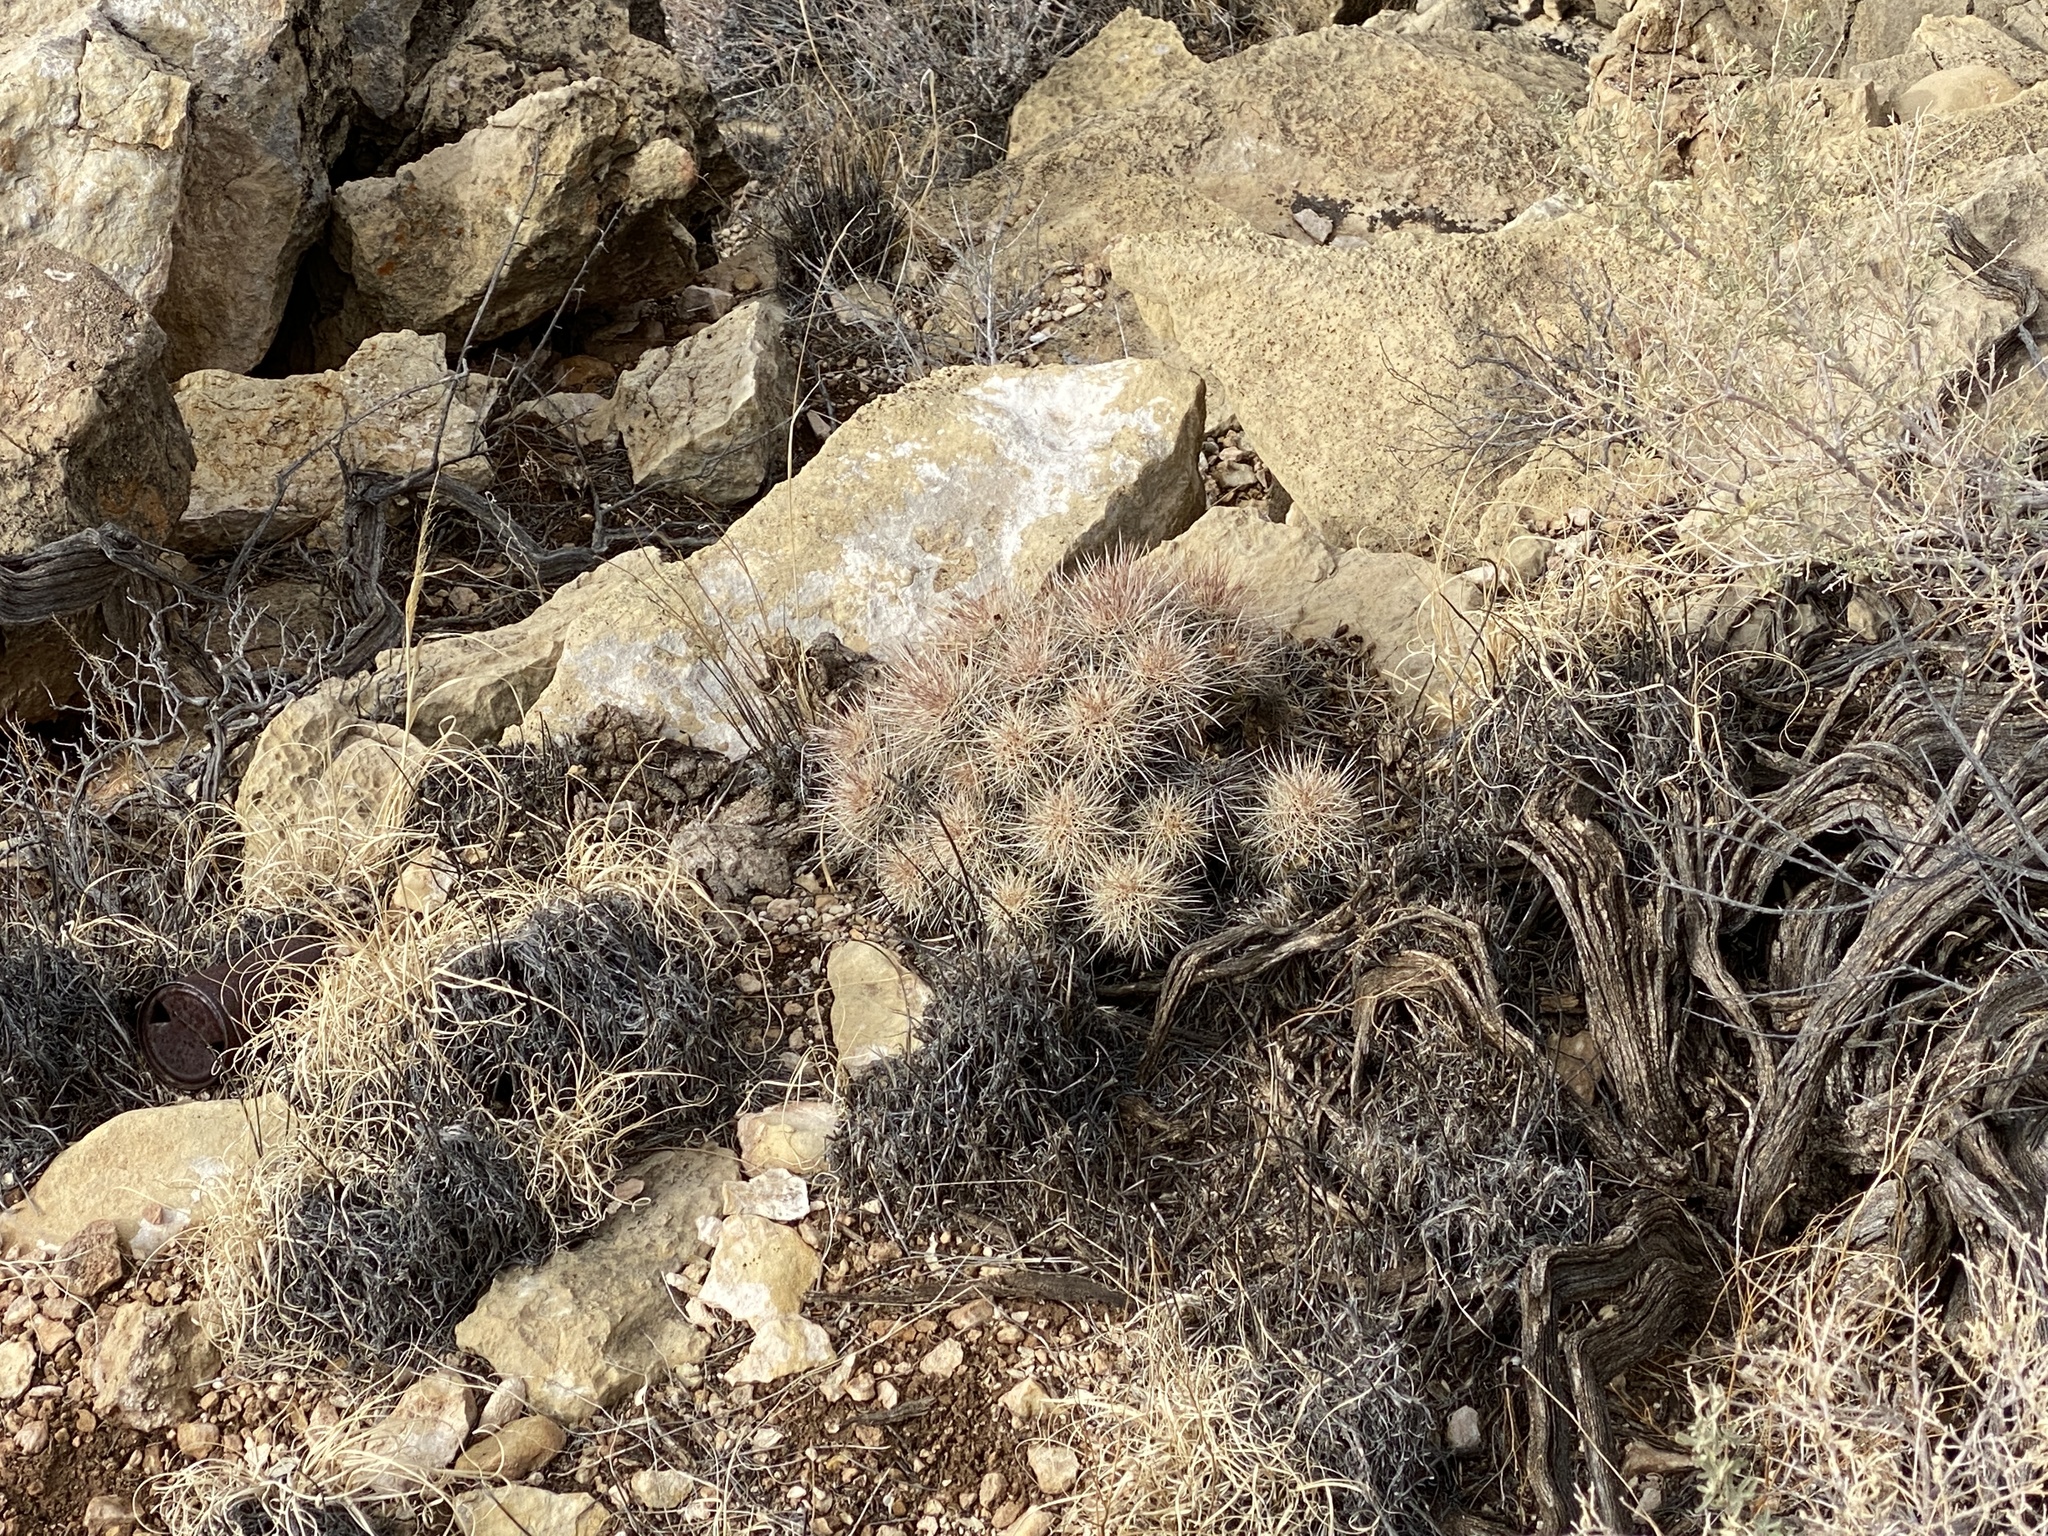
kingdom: Plantae
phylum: Tracheophyta
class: Magnoliopsida
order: Caryophyllales
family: Cactaceae
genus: Echinocereus
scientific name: Echinocereus triglochidiatus
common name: Claretcup hedgehog
